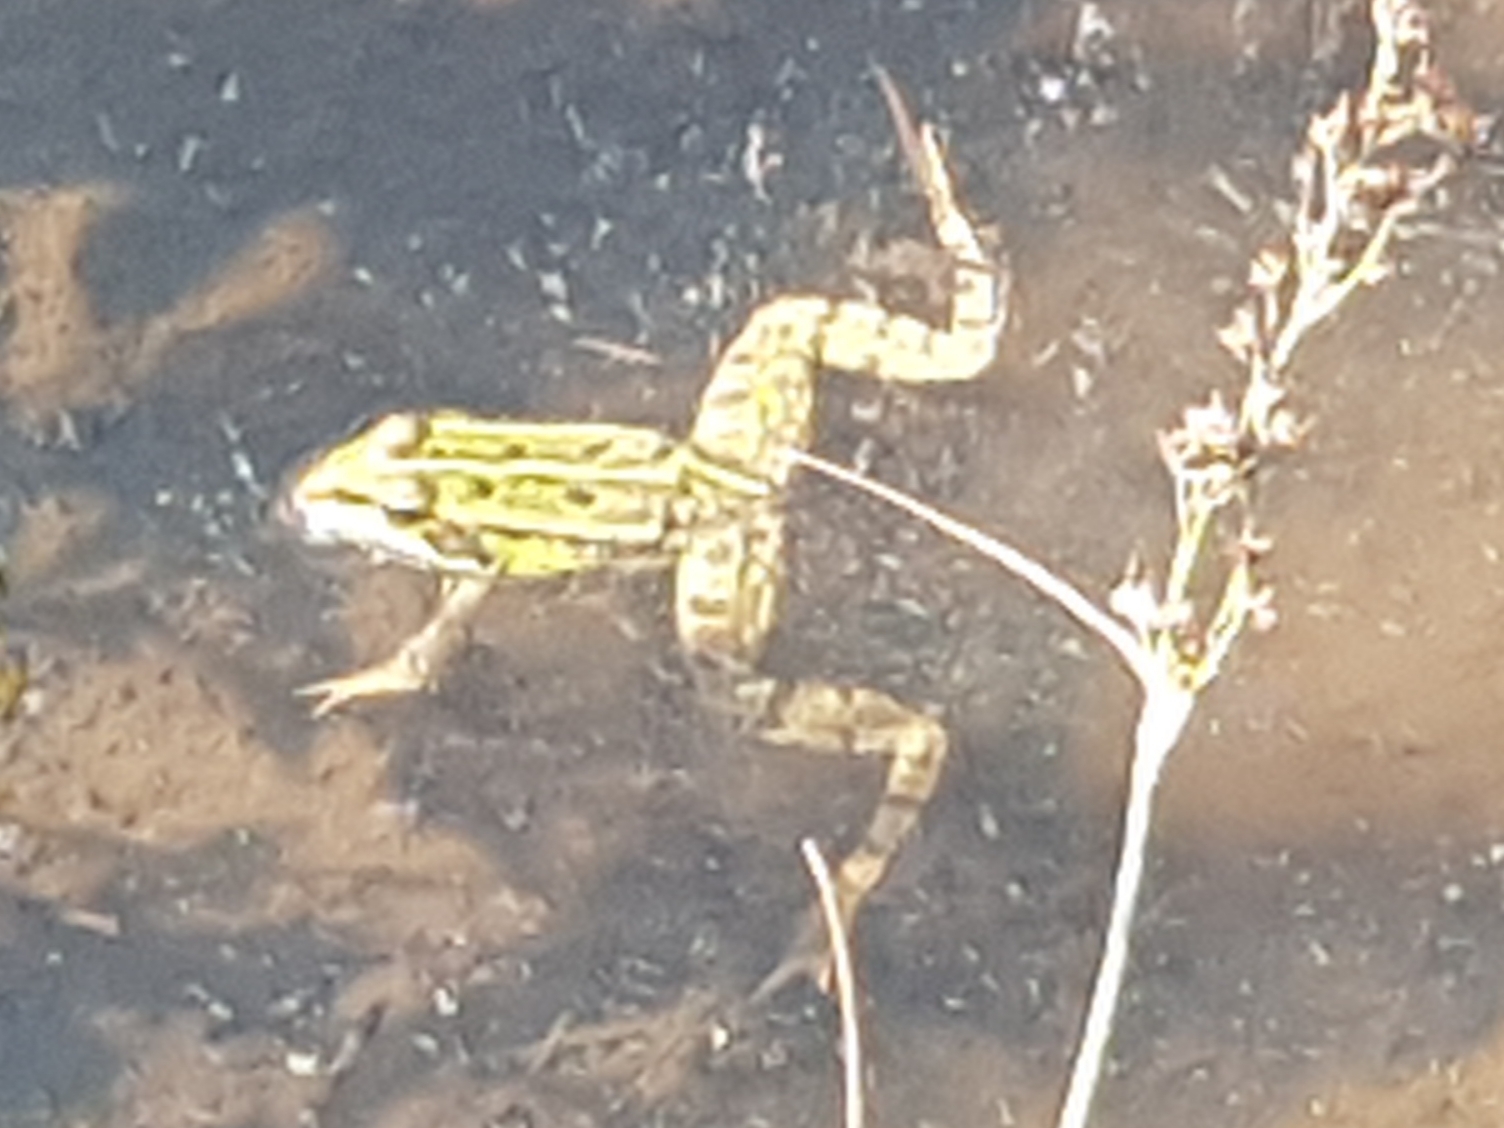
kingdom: Animalia
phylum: Chordata
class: Amphibia
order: Anura
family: Ranidae
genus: Pelophylax
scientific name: Pelophylax
